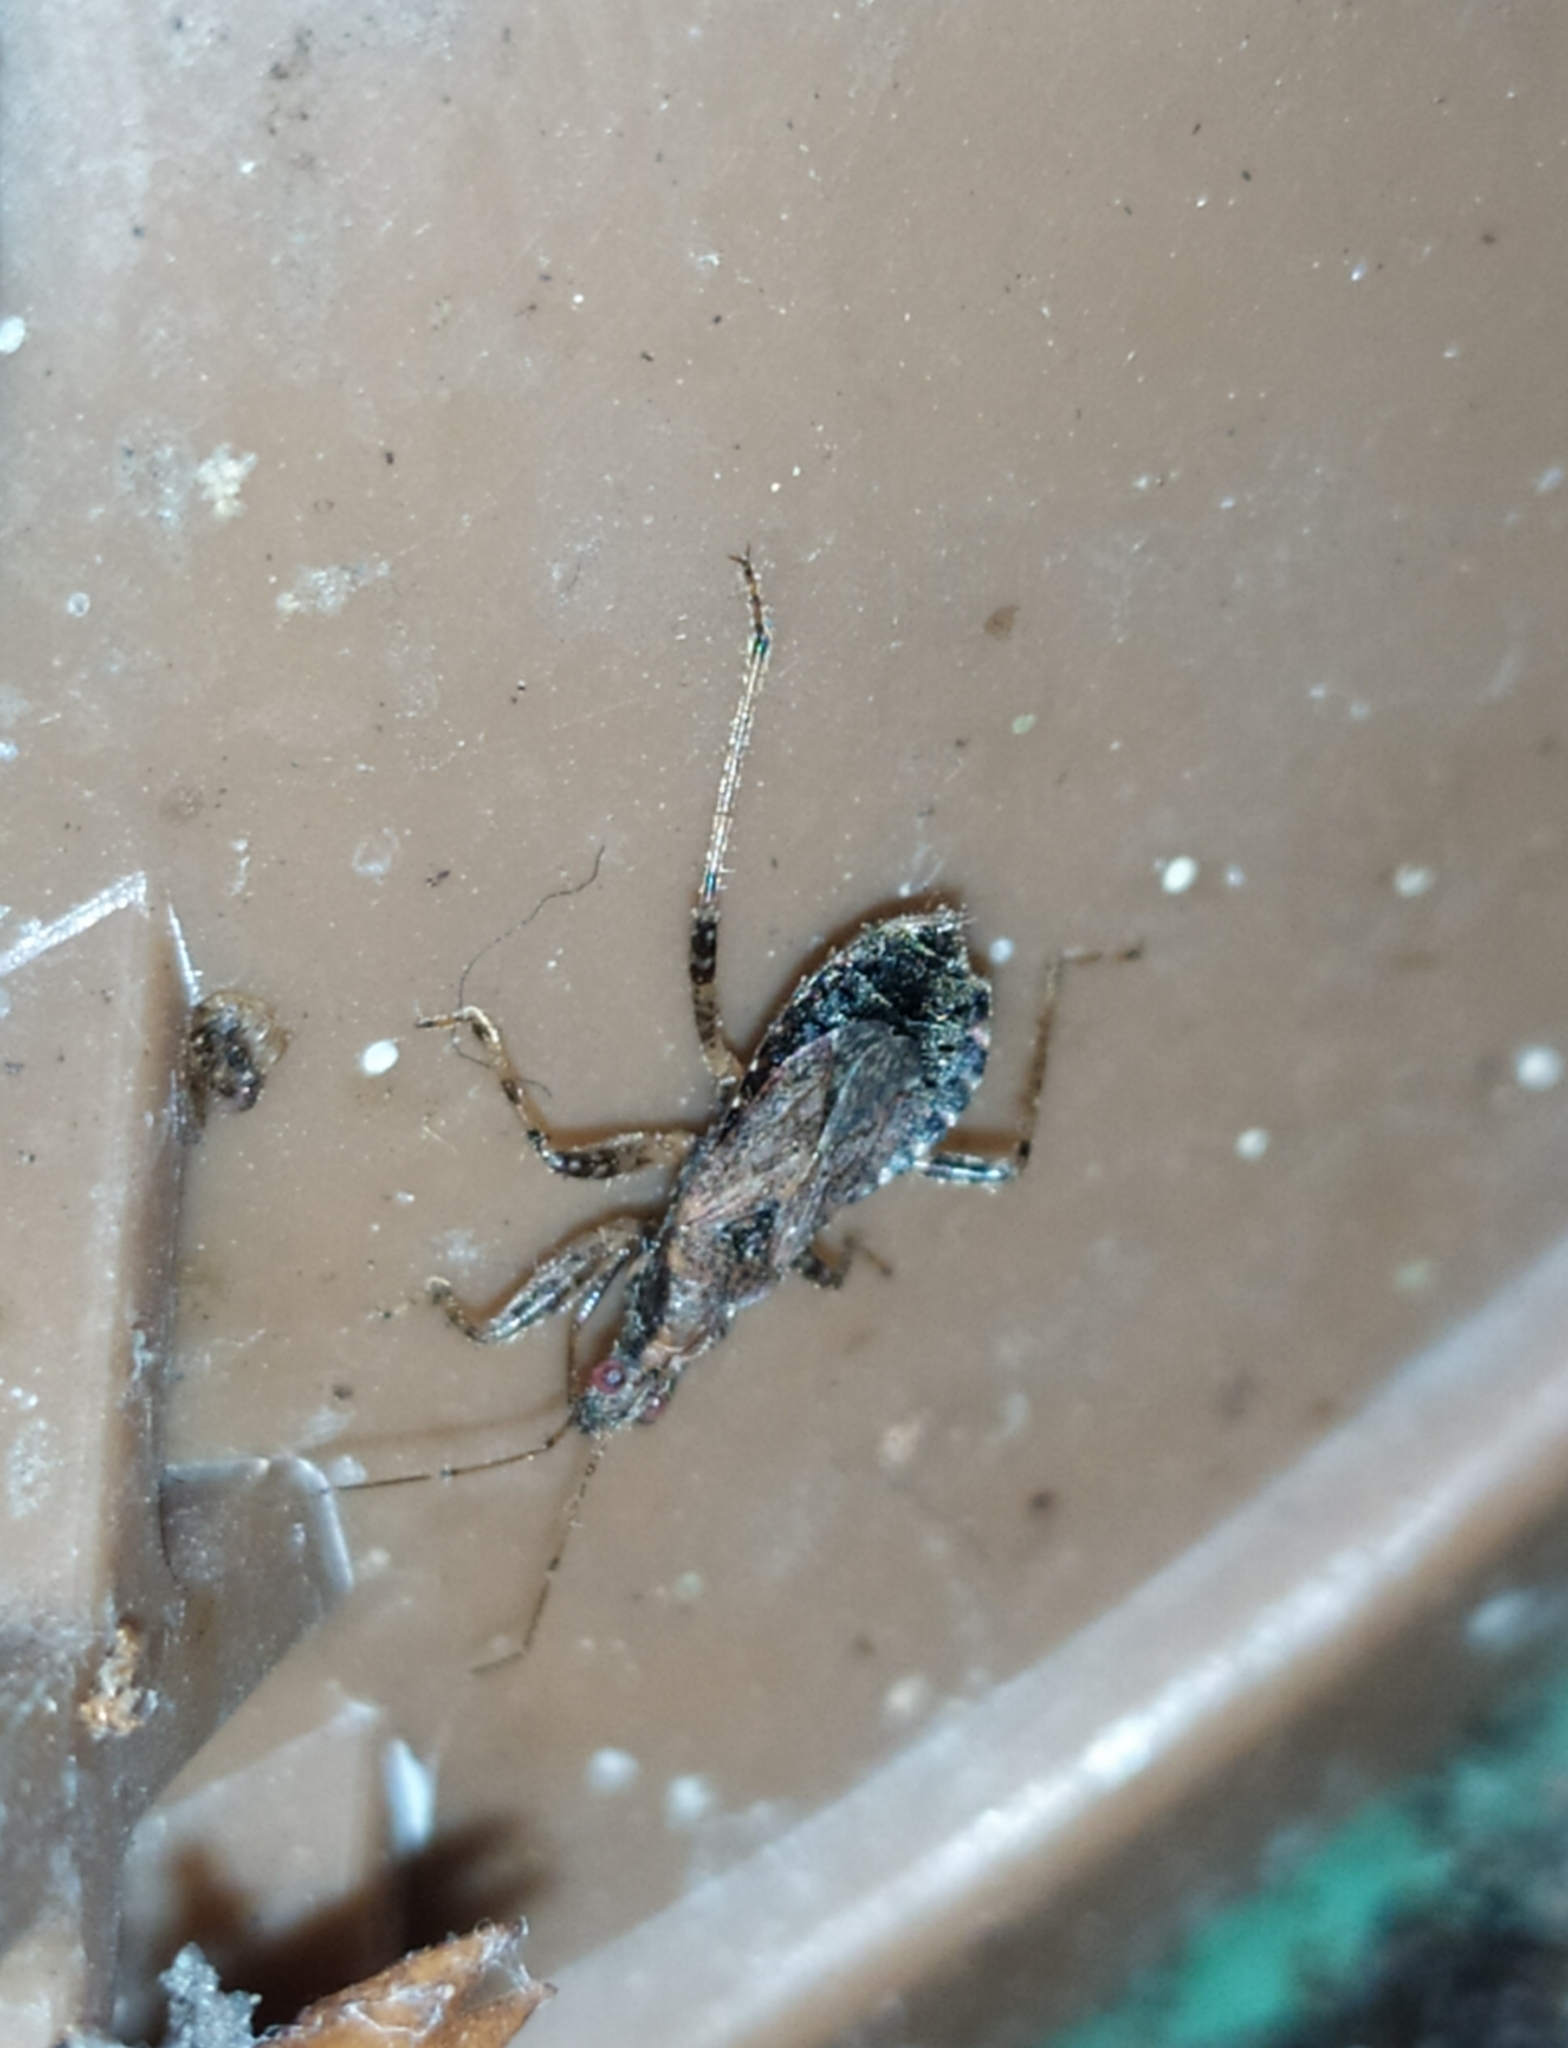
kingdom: Animalia
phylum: Arthropoda
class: Insecta
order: Hemiptera
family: Nabidae
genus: Himacerus
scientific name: Himacerus mirmicoides
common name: Ant damsel bug
